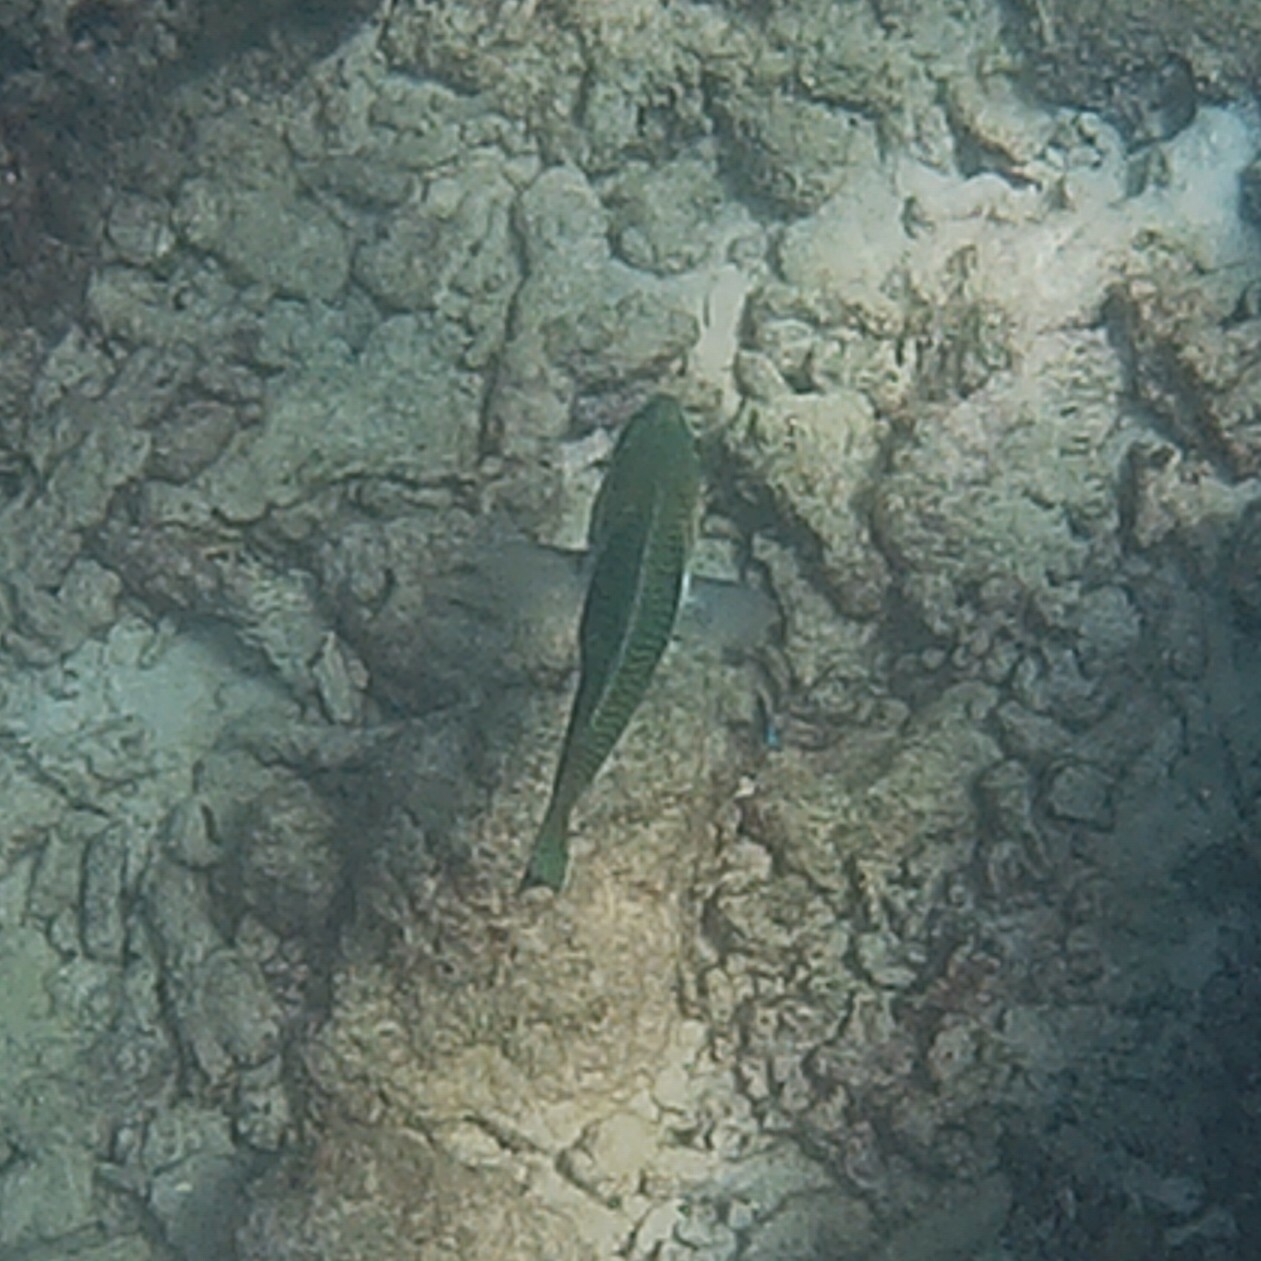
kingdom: Animalia
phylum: Chordata
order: Perciformes
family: Labridae
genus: Hemigymnus
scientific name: Hemigymnus melapterus
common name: Blackeye thicklip
